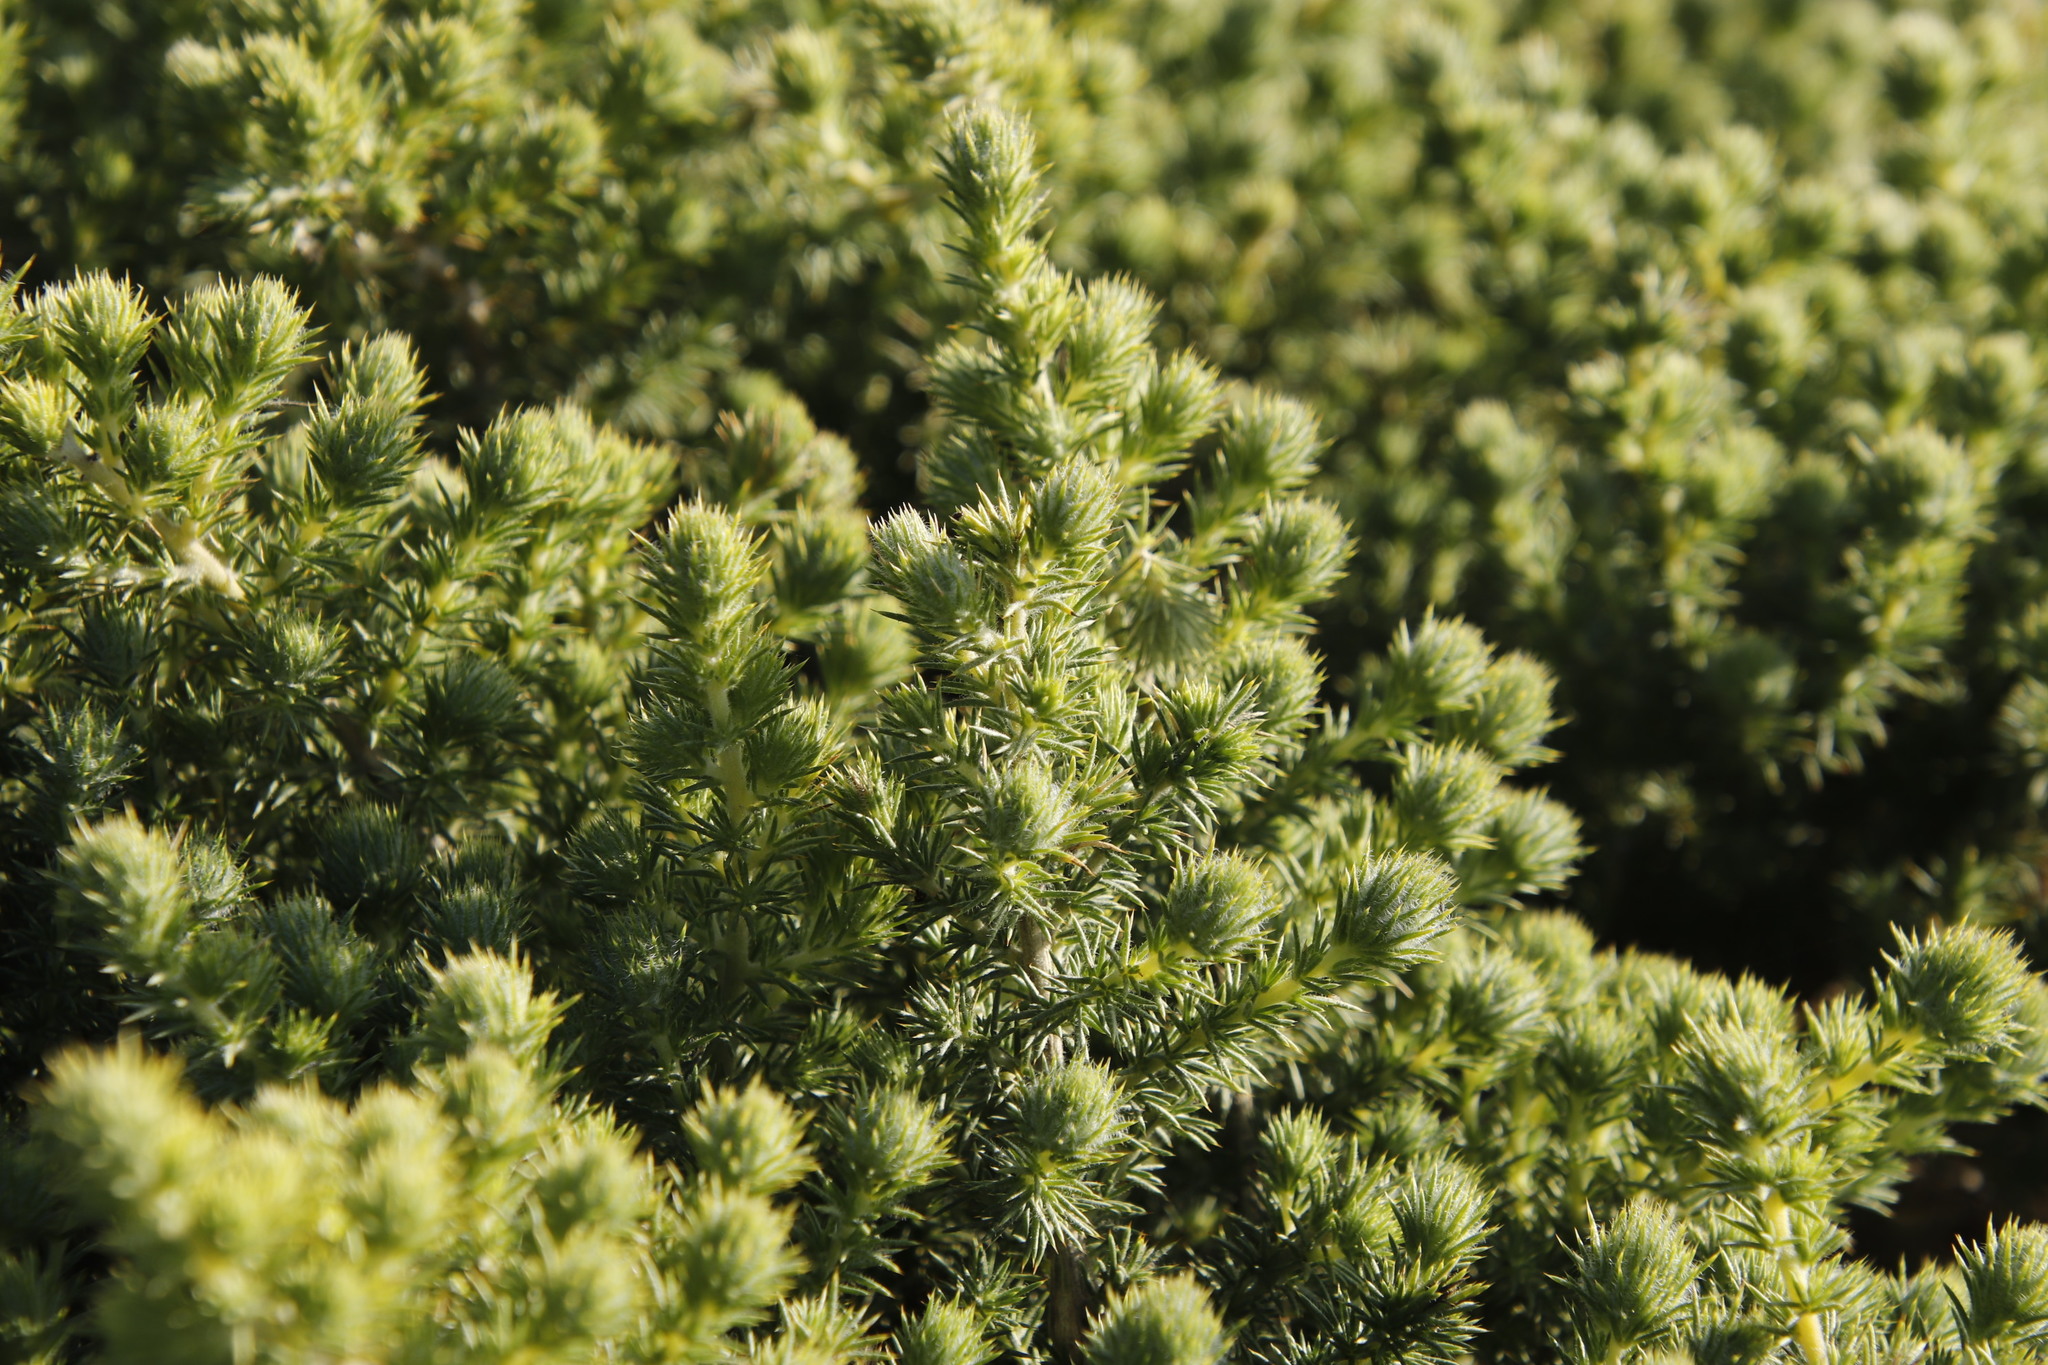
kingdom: Plantae
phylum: Tracheophyta
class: Magnoliopsida
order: Fabales
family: Fabaceae
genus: Aspalathus
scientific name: Aspalathus chenopoda
